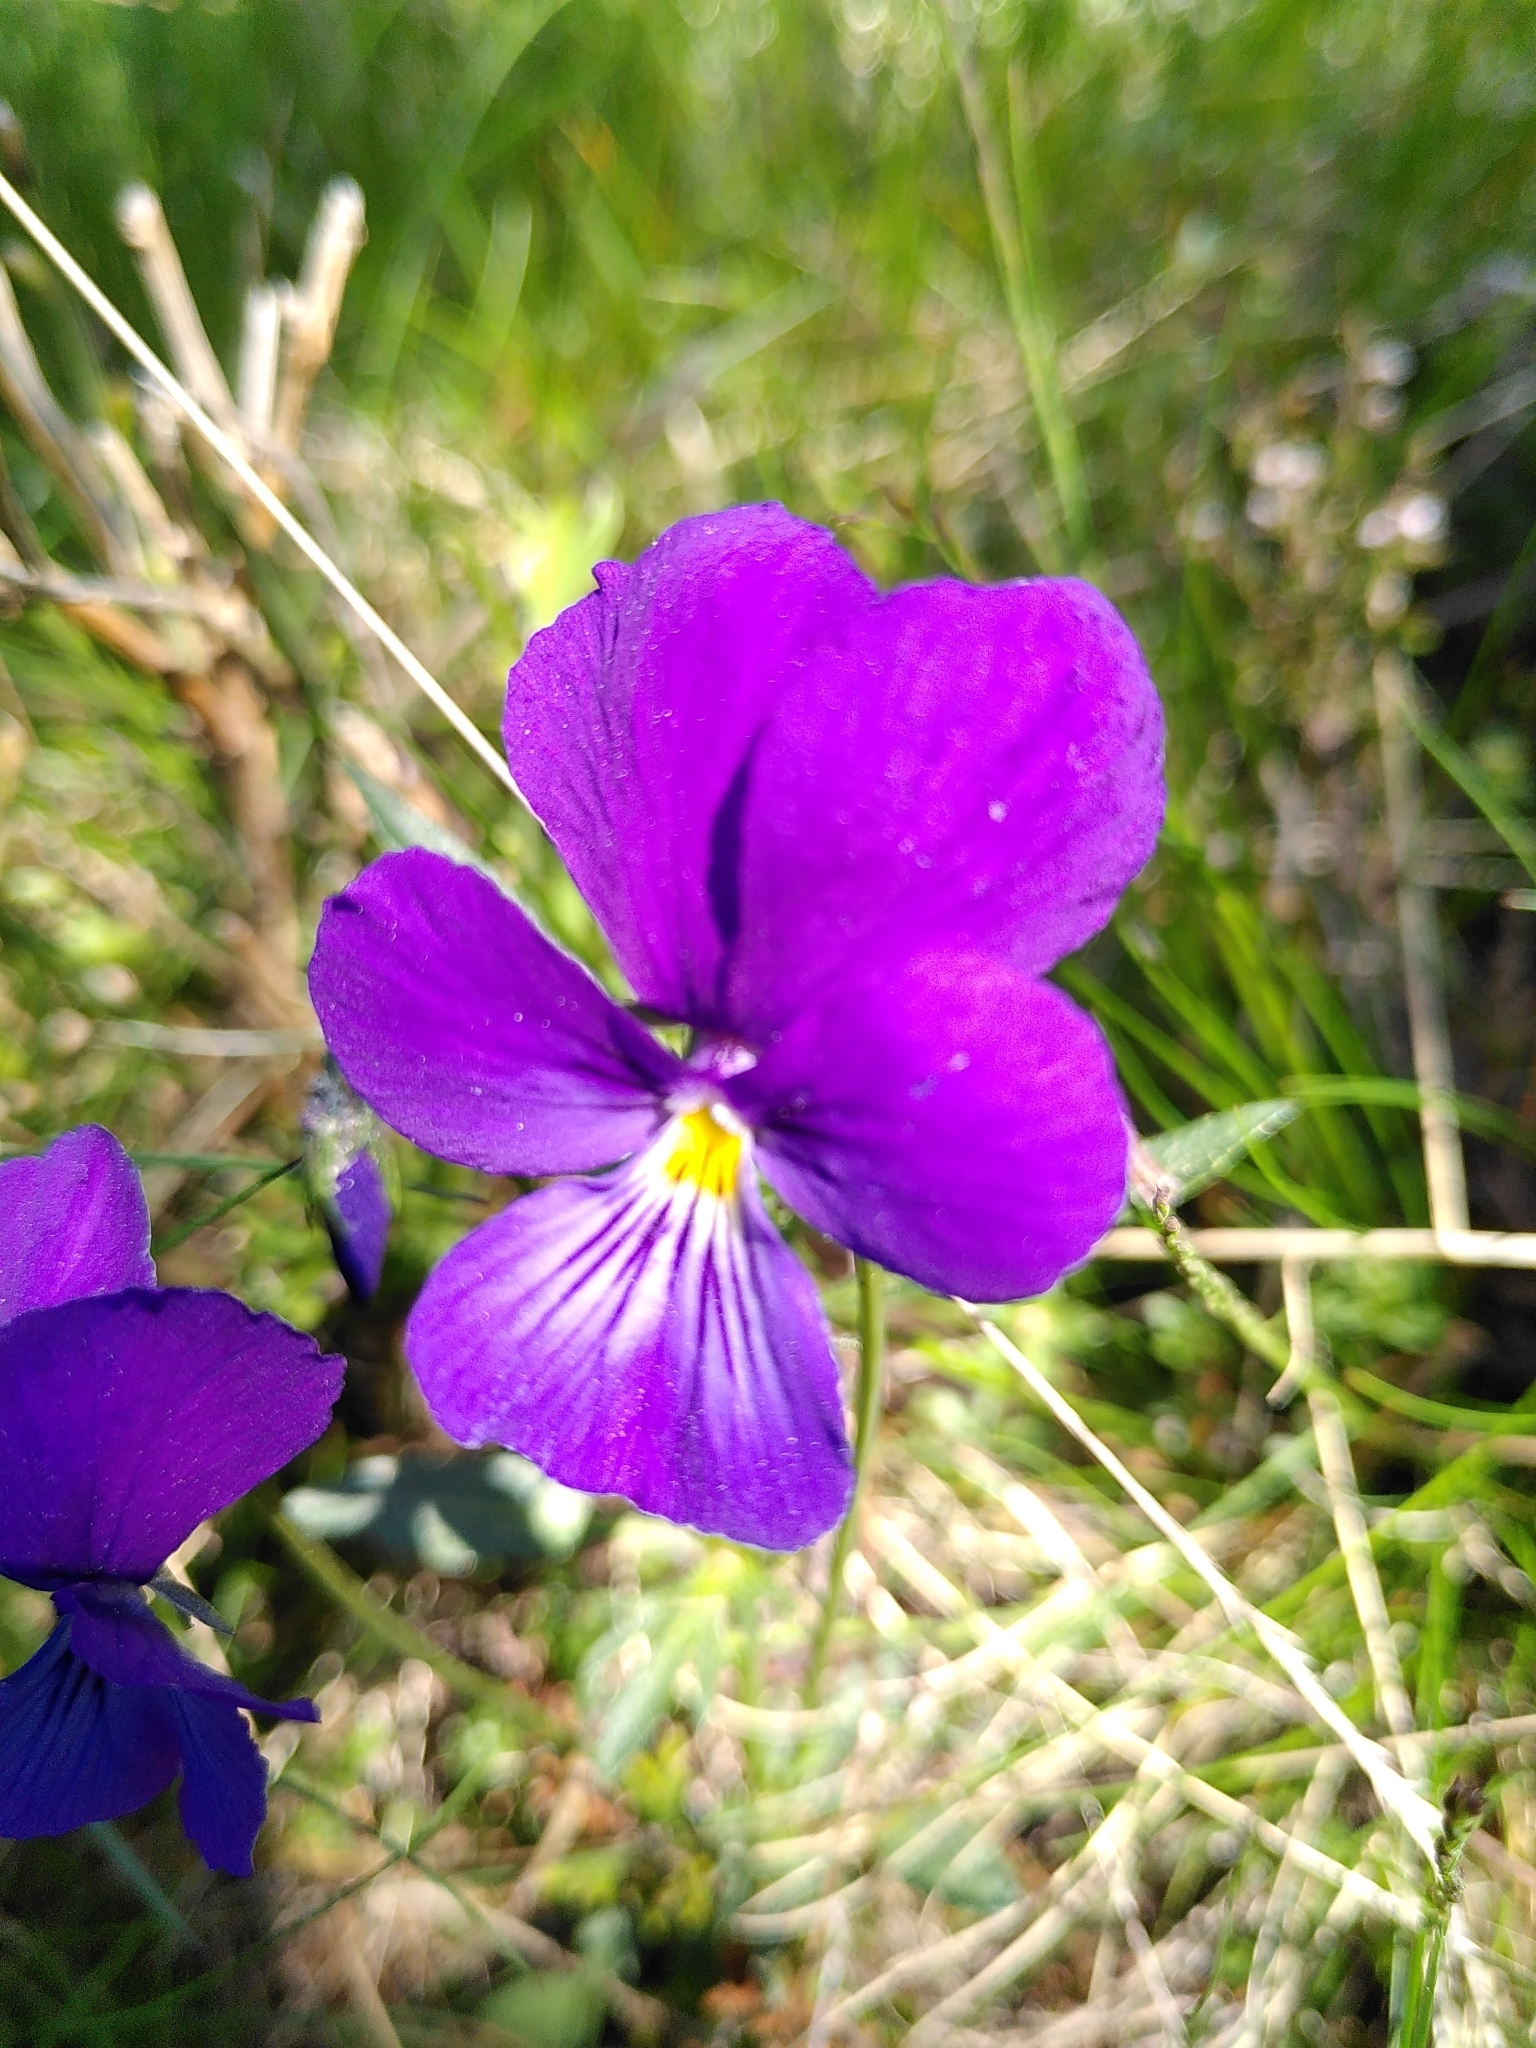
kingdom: Plantae
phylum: Tracheophyta
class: Magnoliopsida
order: Malpighiales
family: Violaceae
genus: Viola
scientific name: Viola lutea
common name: Mountain pansy
